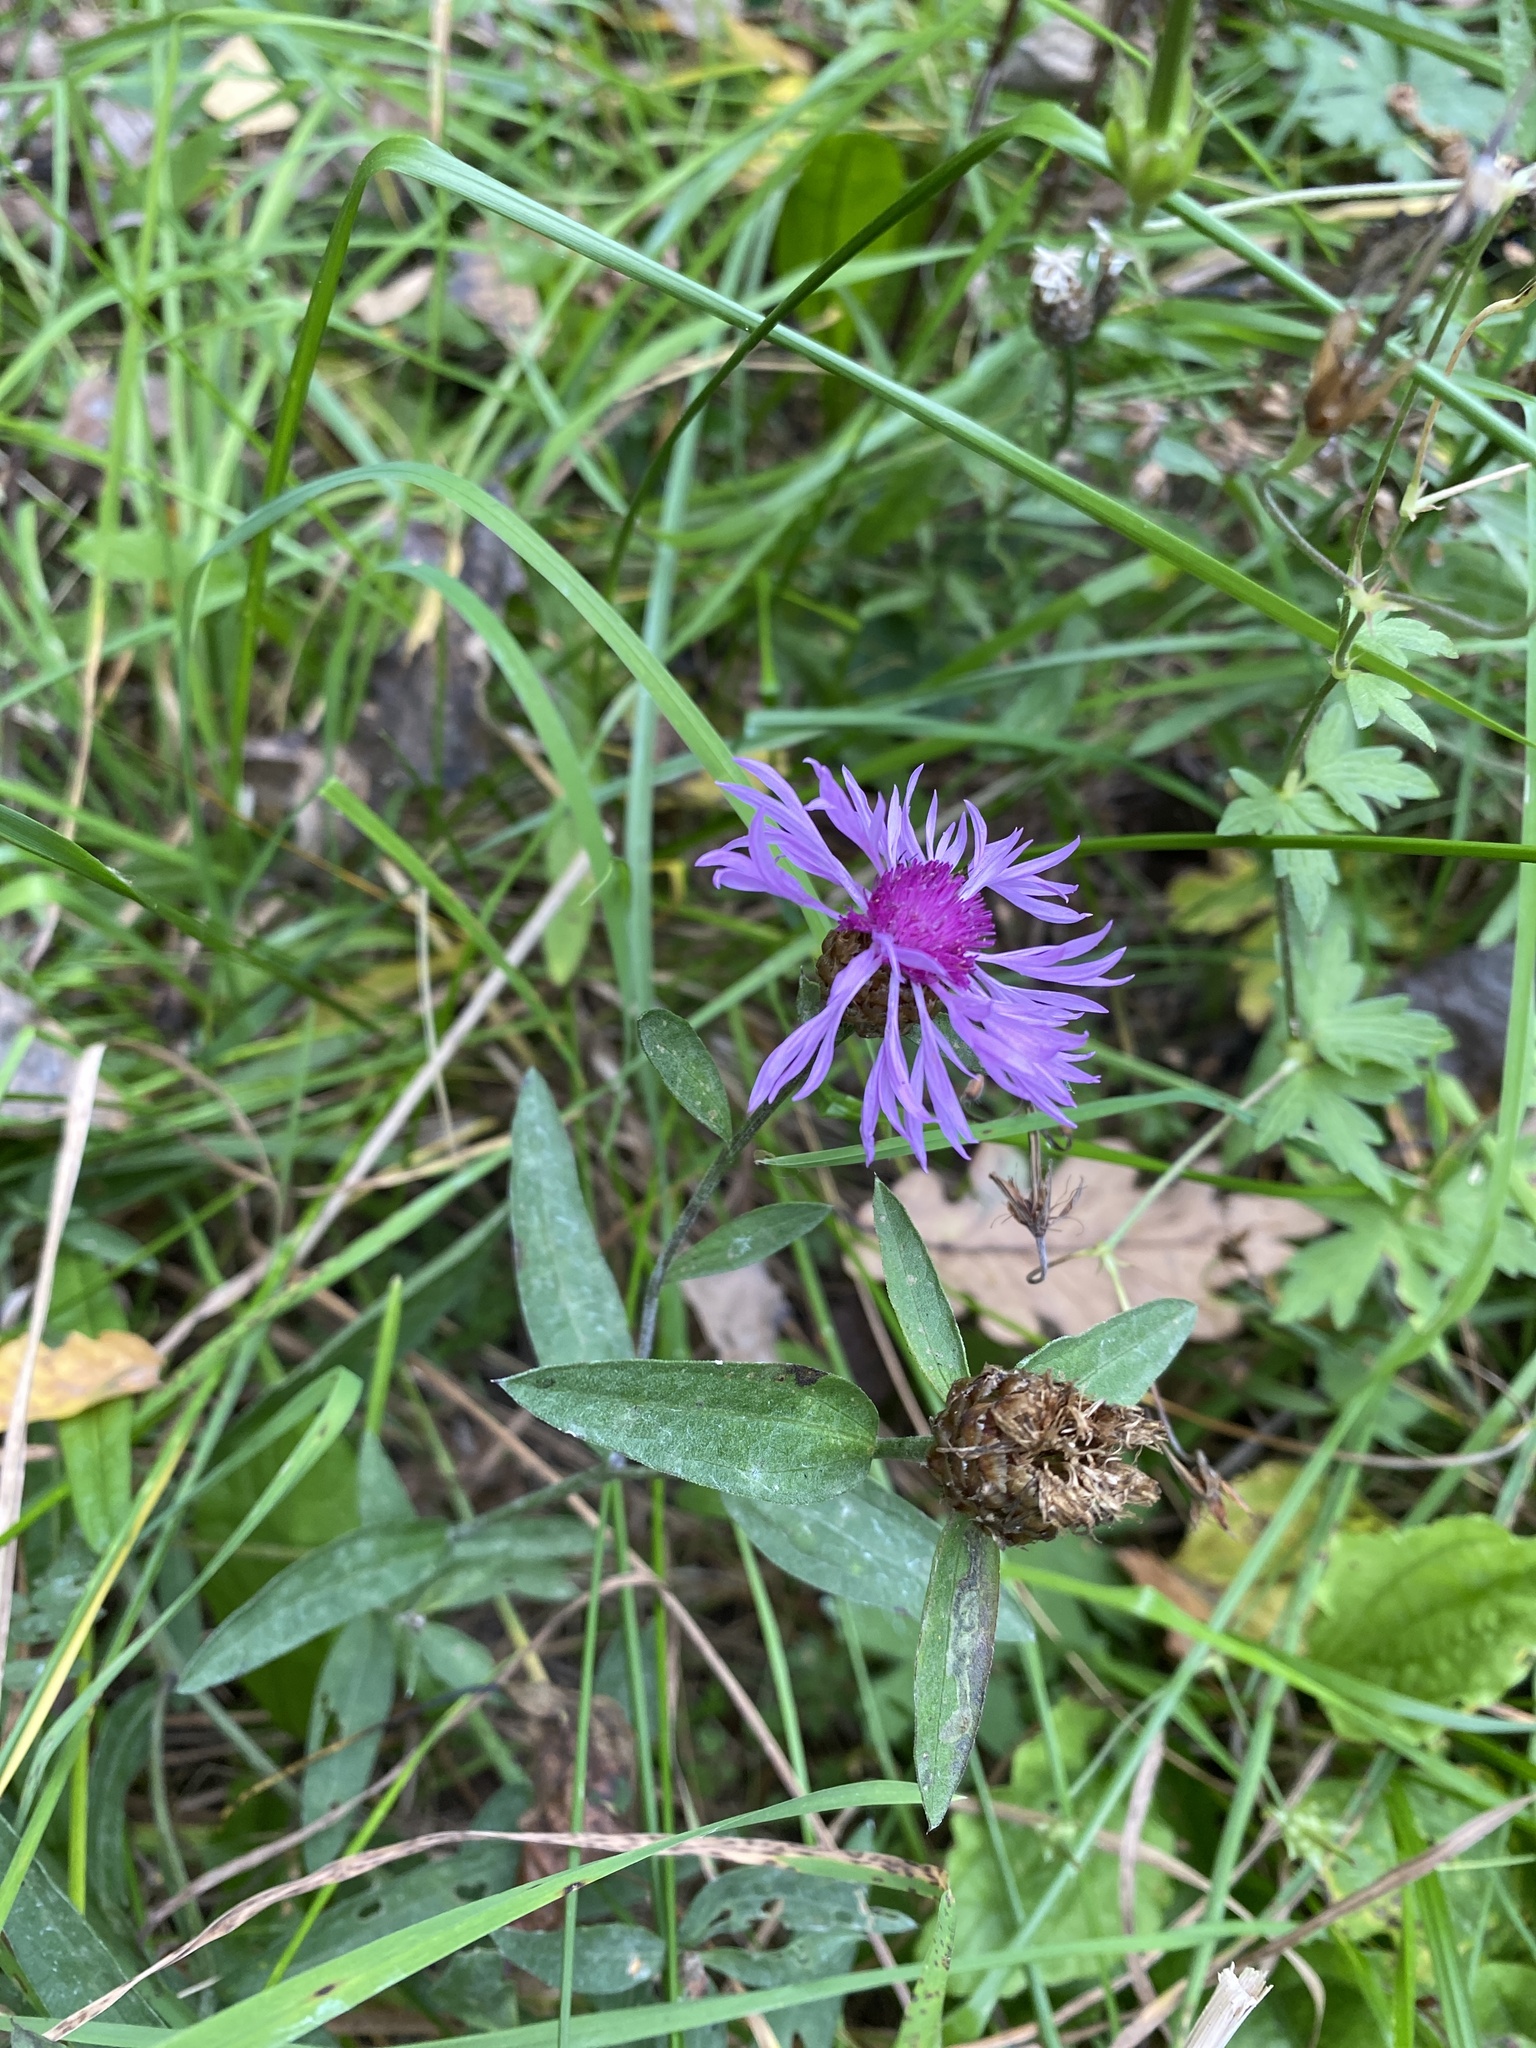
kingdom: Plantae
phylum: Tracheophyta
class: Magnoliopsida
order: Asterales
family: Asteraceae
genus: Centaurea
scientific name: Centaurea jacea
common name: Brown knapweed
